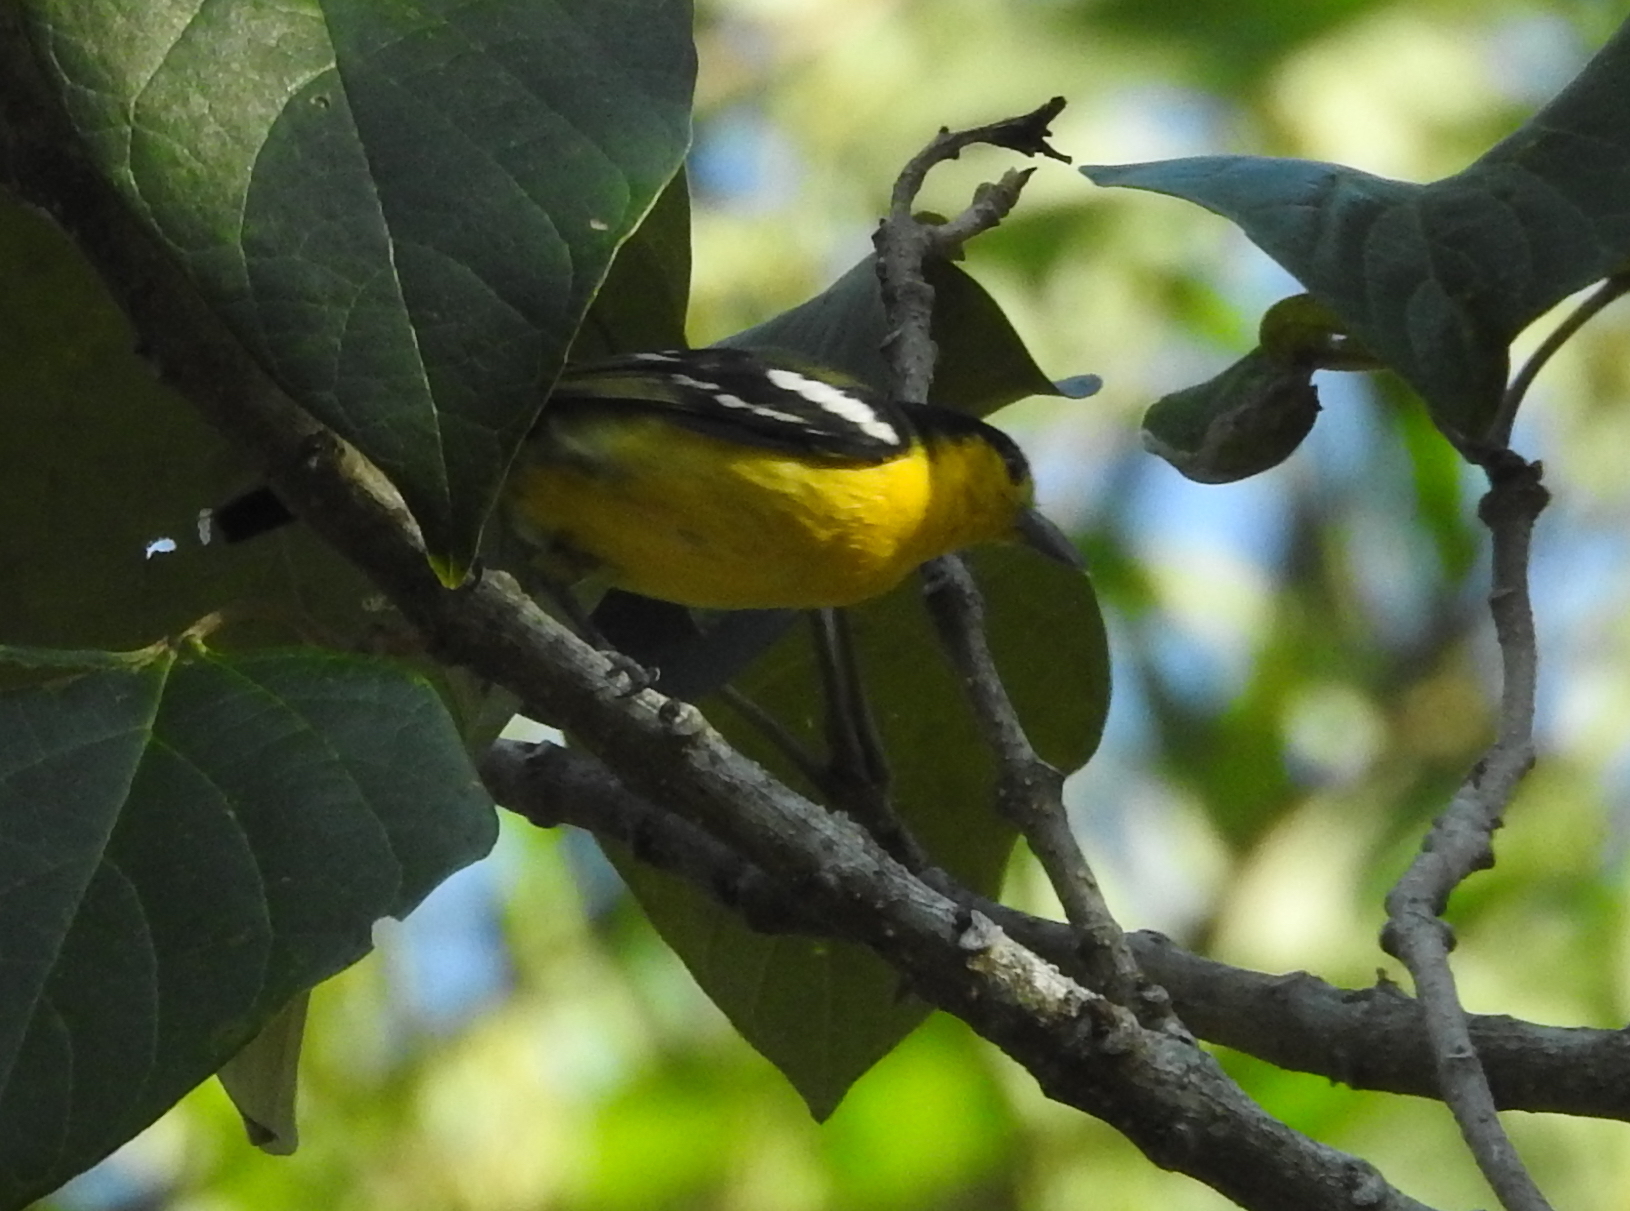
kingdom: Animalia
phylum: Chordata
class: Aves
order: Passeriformes
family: Aegithinidae
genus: Aegithina
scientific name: Aegithina tiphia
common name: Common iora
